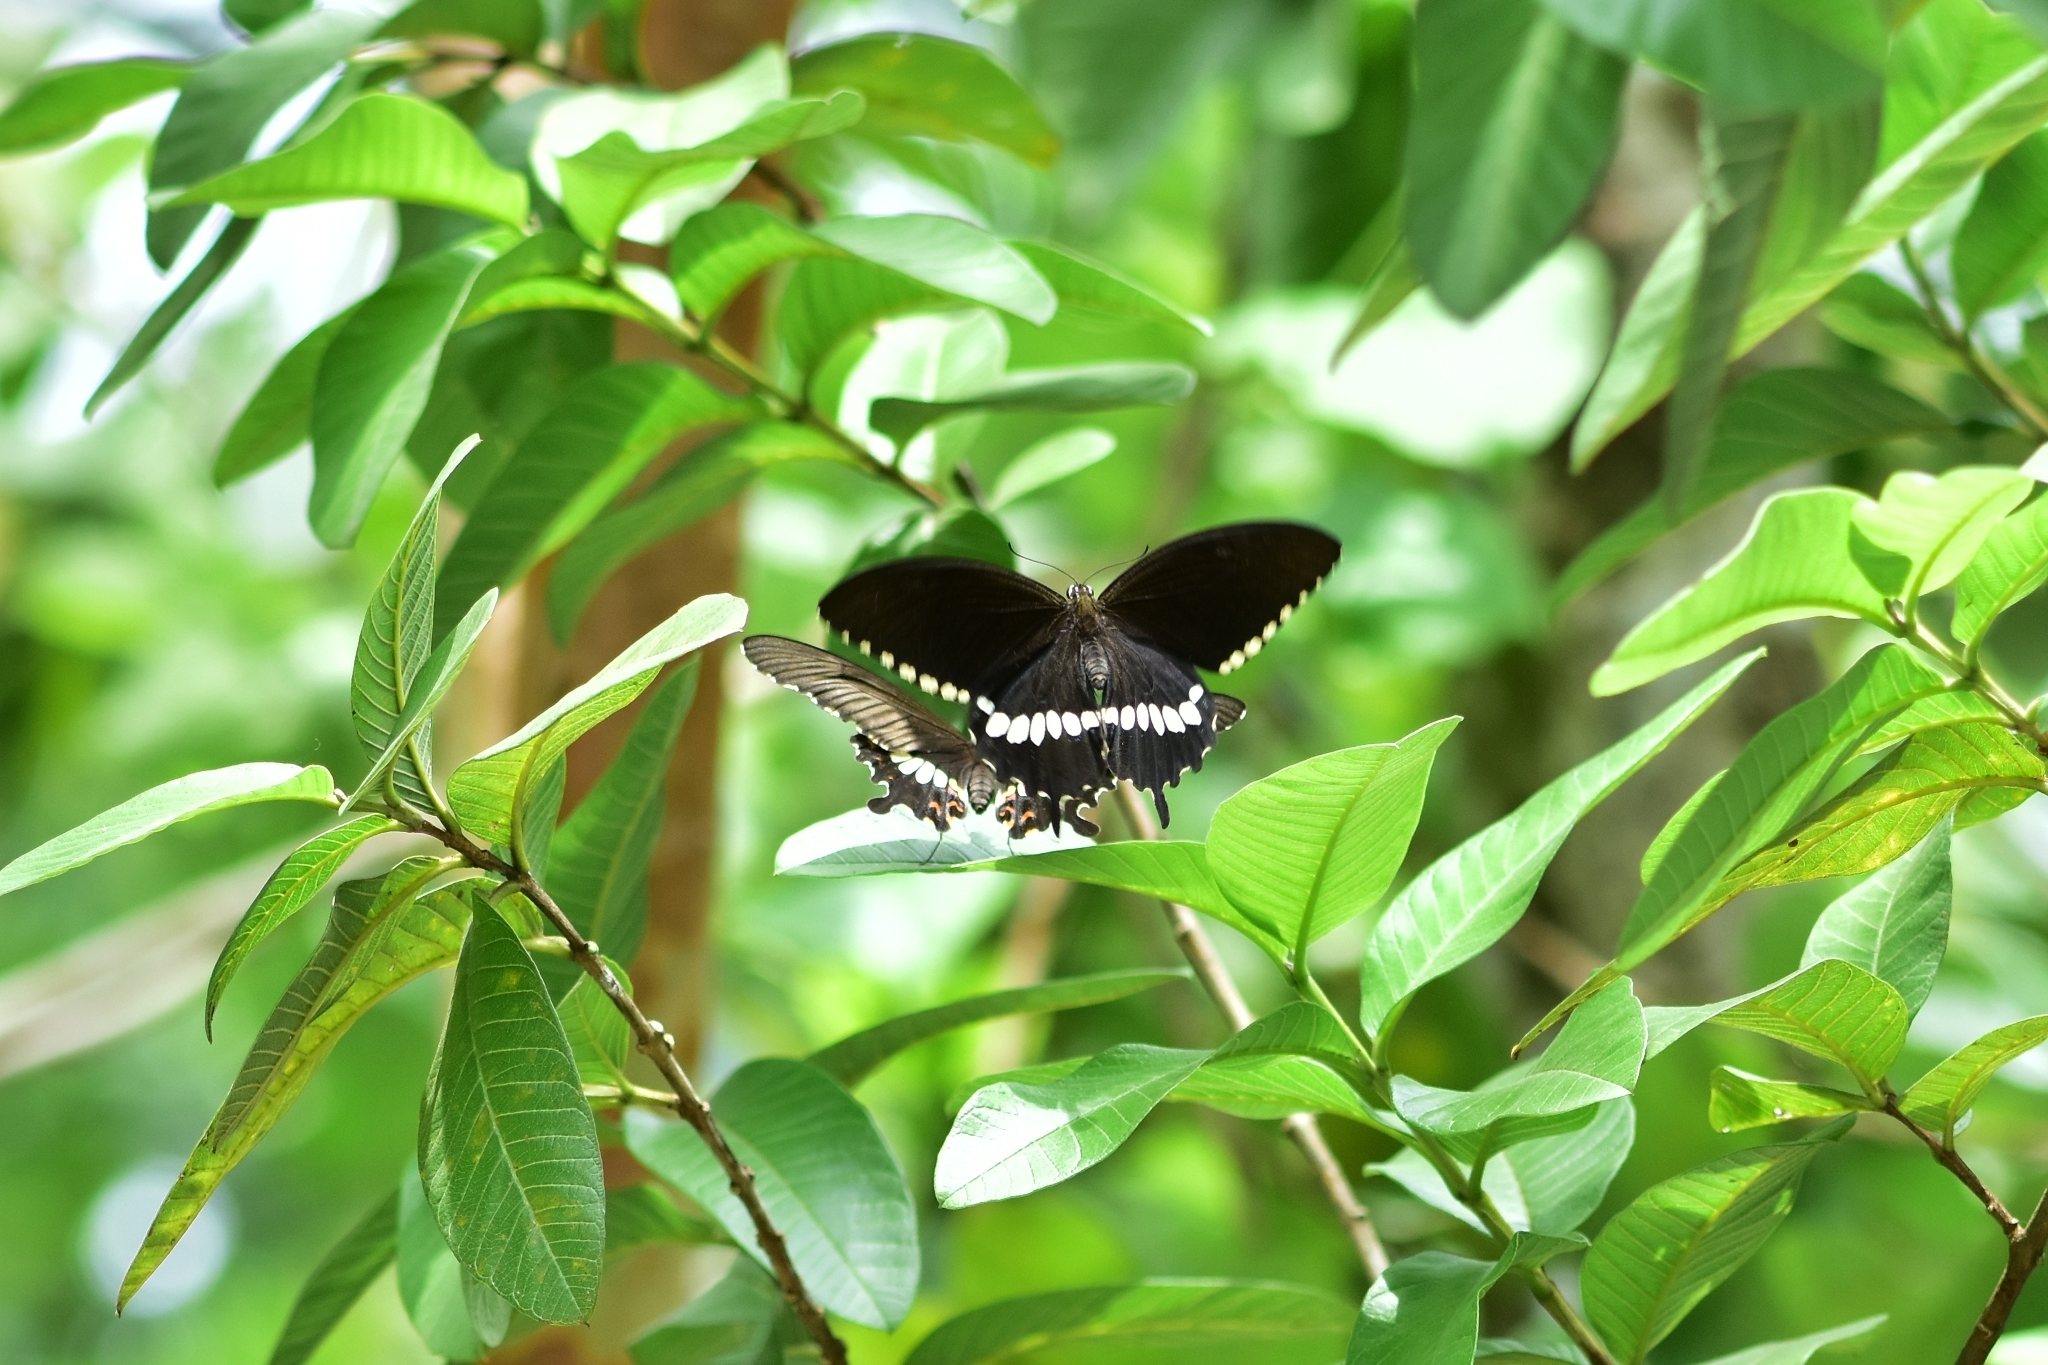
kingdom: Animalia
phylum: Arthropoda
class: Insecta
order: Lepidoptera
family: Papilionidae
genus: Papilio
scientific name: Papilio polytes
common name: Common mormon
